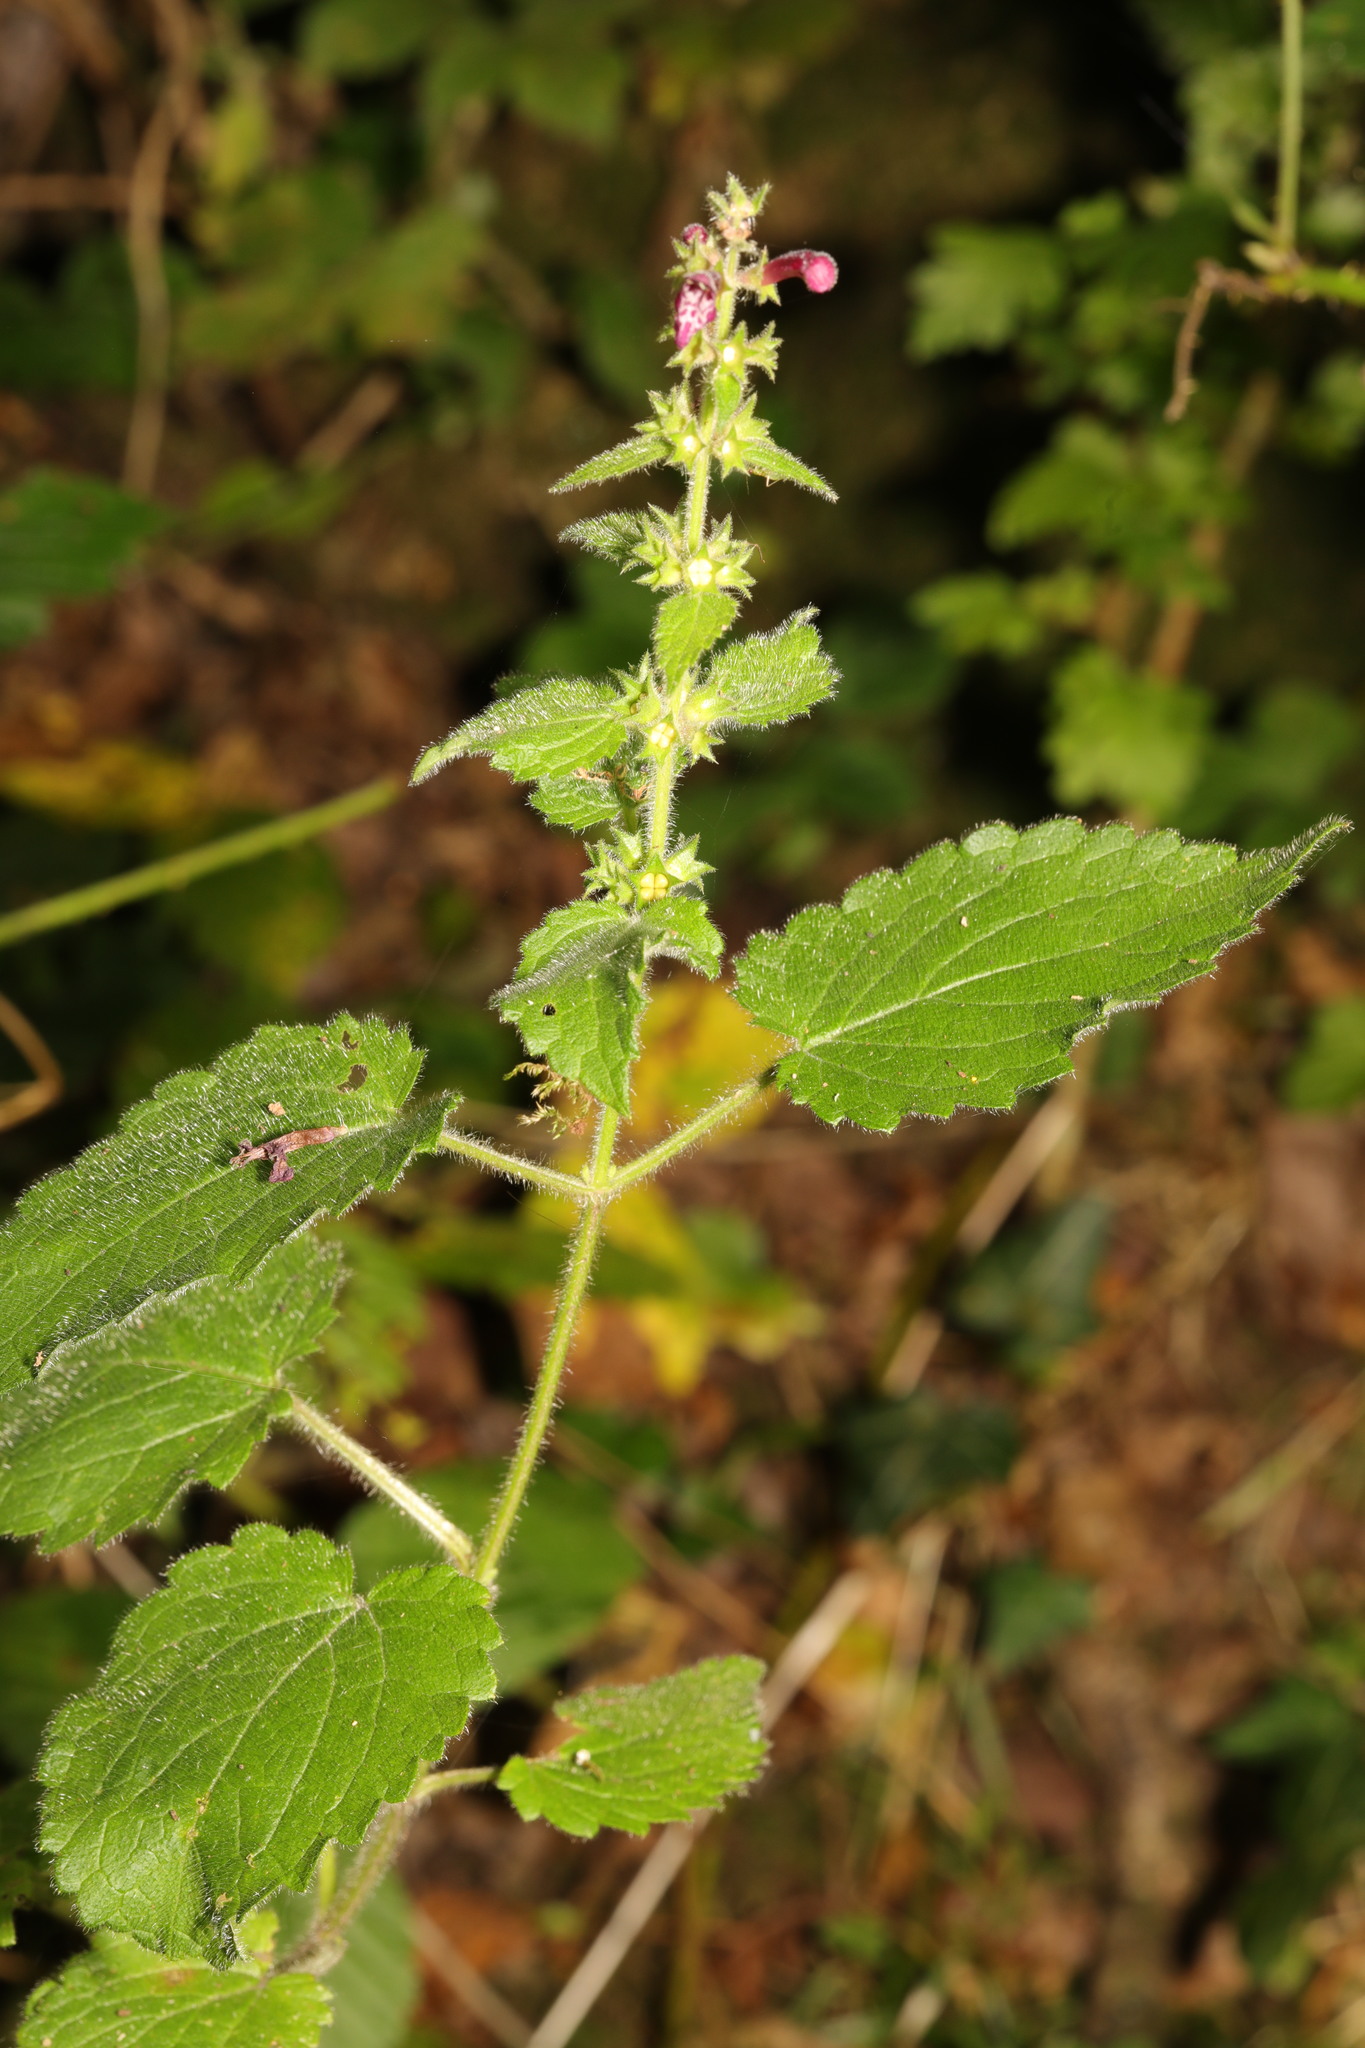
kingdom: Plantae
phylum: Tracheophyta
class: Magnoliopsida
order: Lamiales
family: Lamiaceae
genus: Stachys
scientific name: Stachys sylvatica
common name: Hedge woundwort
